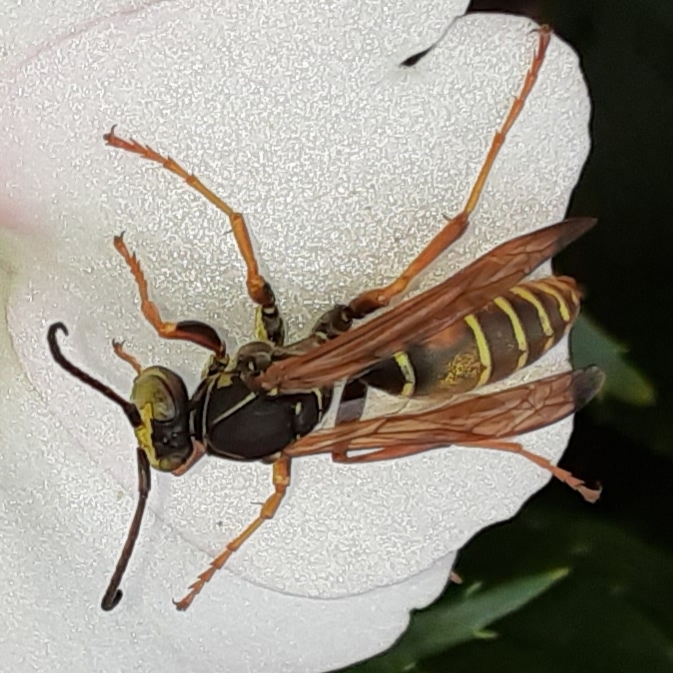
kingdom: Animalia
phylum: Arthropoda
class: Insecta
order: Hymenoptera
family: Eumenidae
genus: Polistes
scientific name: Polistes fuscatus
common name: Dark paper wasp
